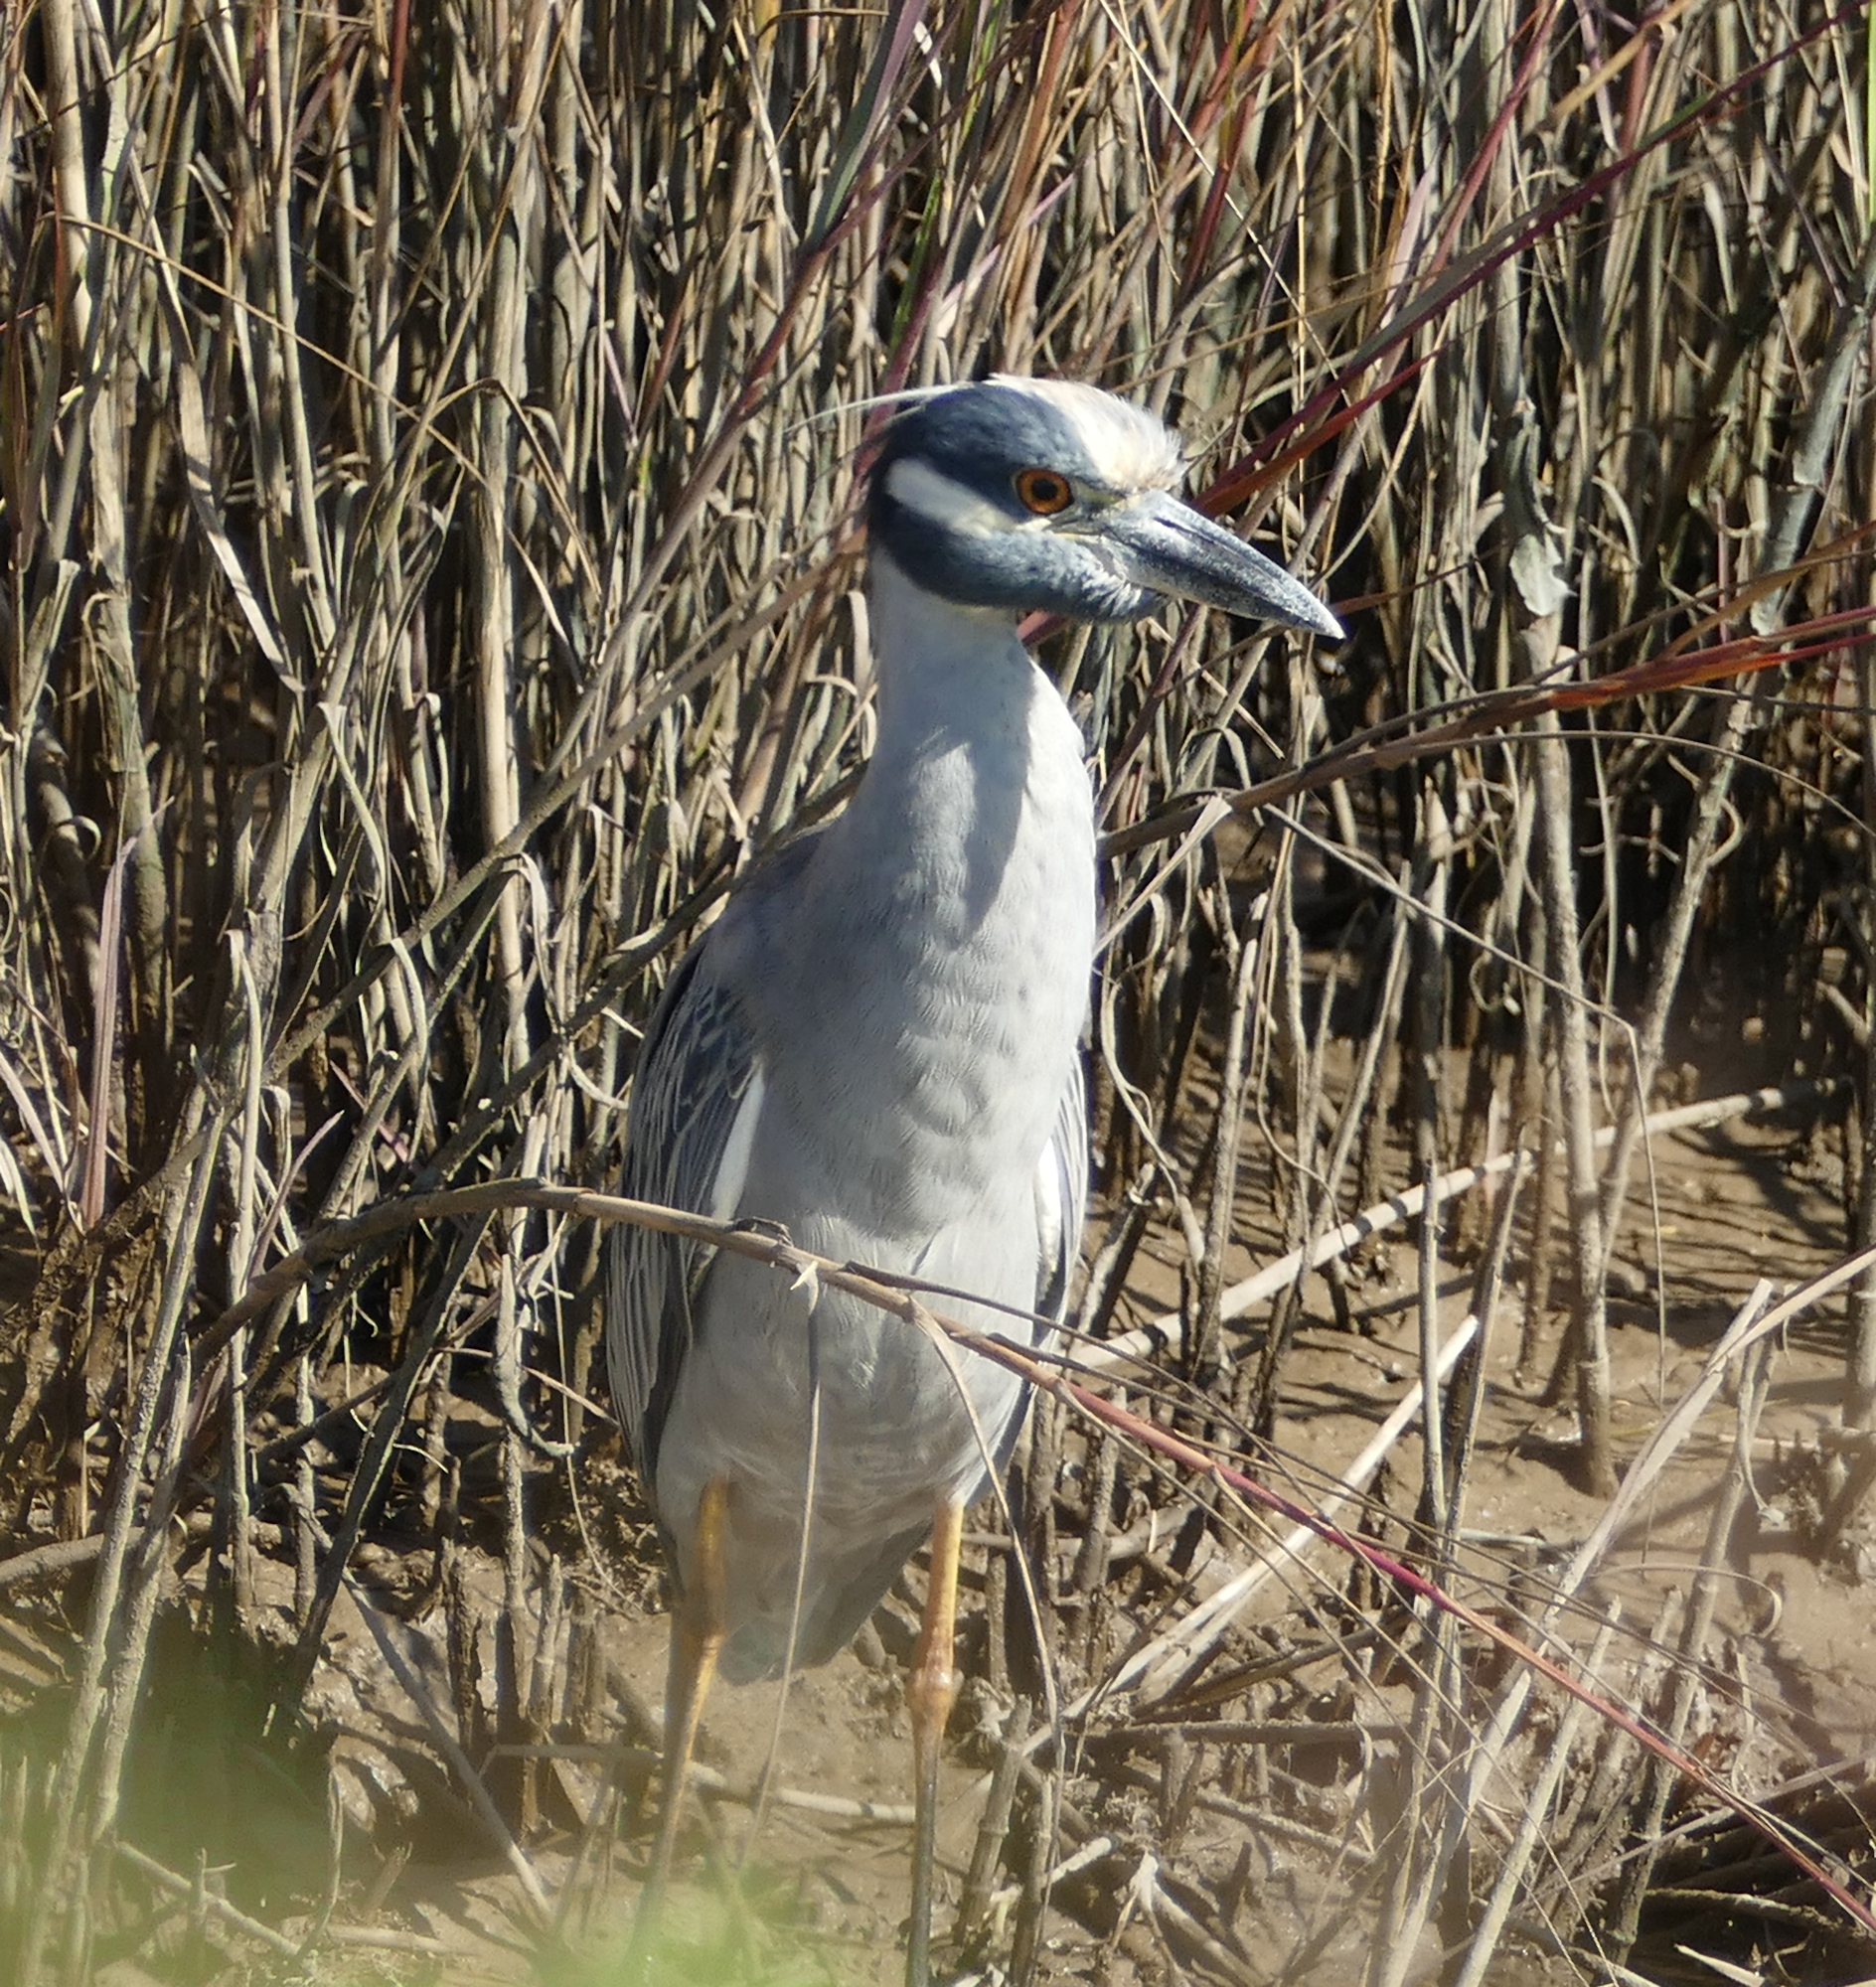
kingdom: Animalia
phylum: Chordata
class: Aves
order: Pelecaniformes
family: Ardeidae
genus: Nyctanassa
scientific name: Nyctanassa violacea
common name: Yellow-crowned night heron
